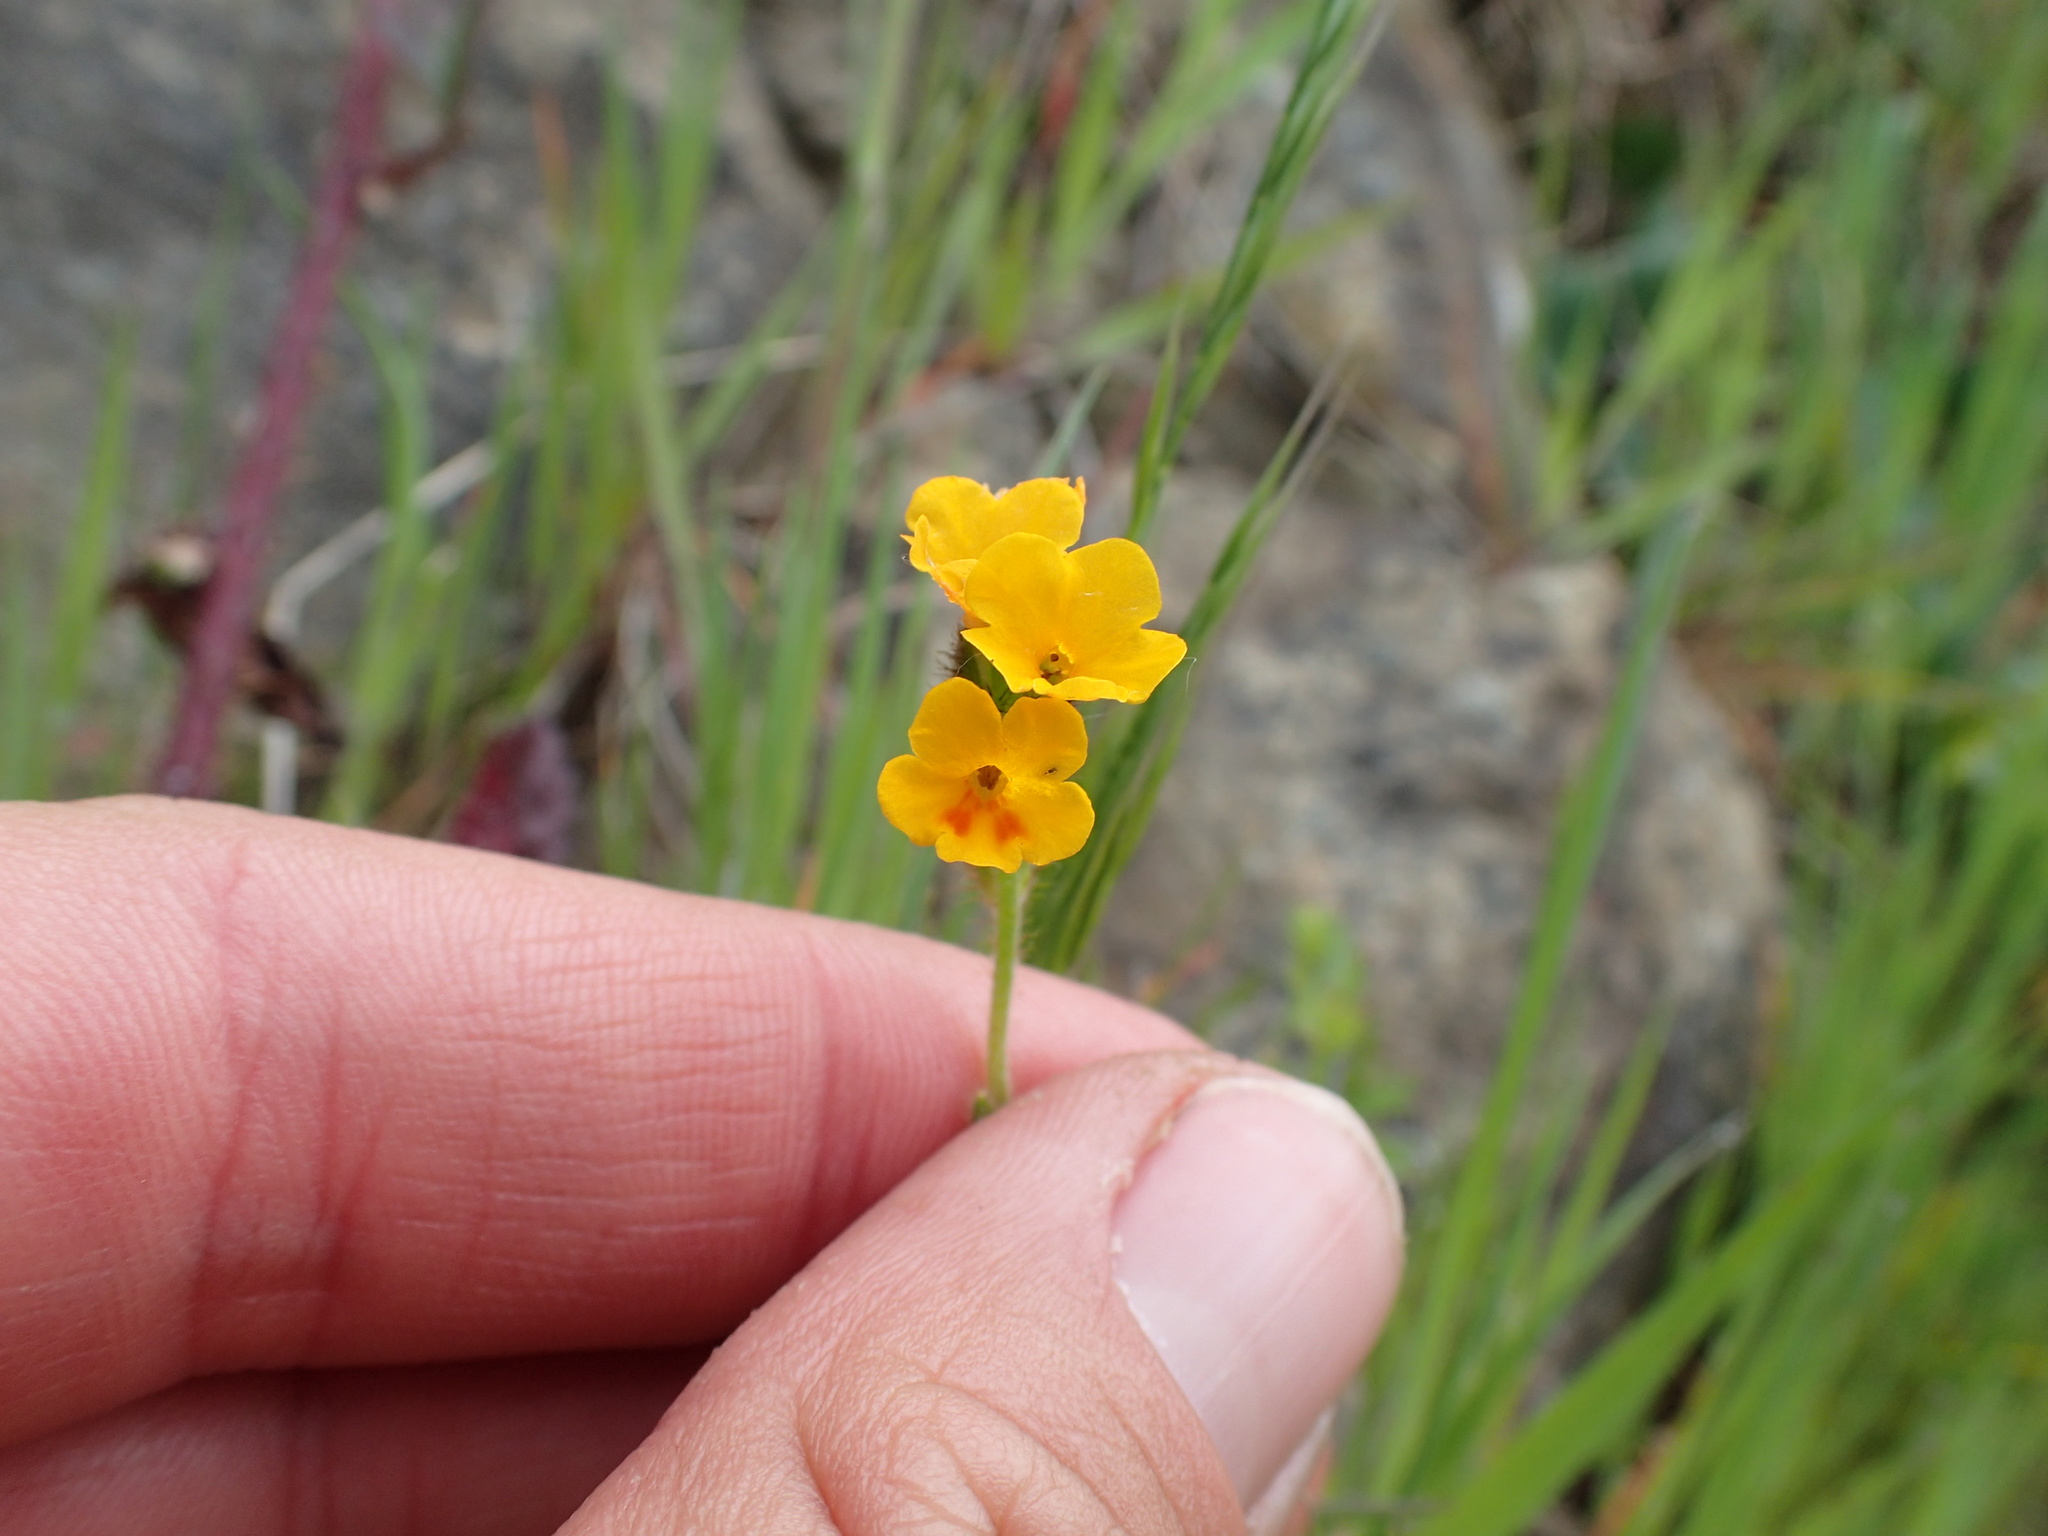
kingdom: Plantae
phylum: Tracheophyta
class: Magnoliopsida
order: Boraginales
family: Boraginaceae
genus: Amsinckia
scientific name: Amsinckia lunaris
